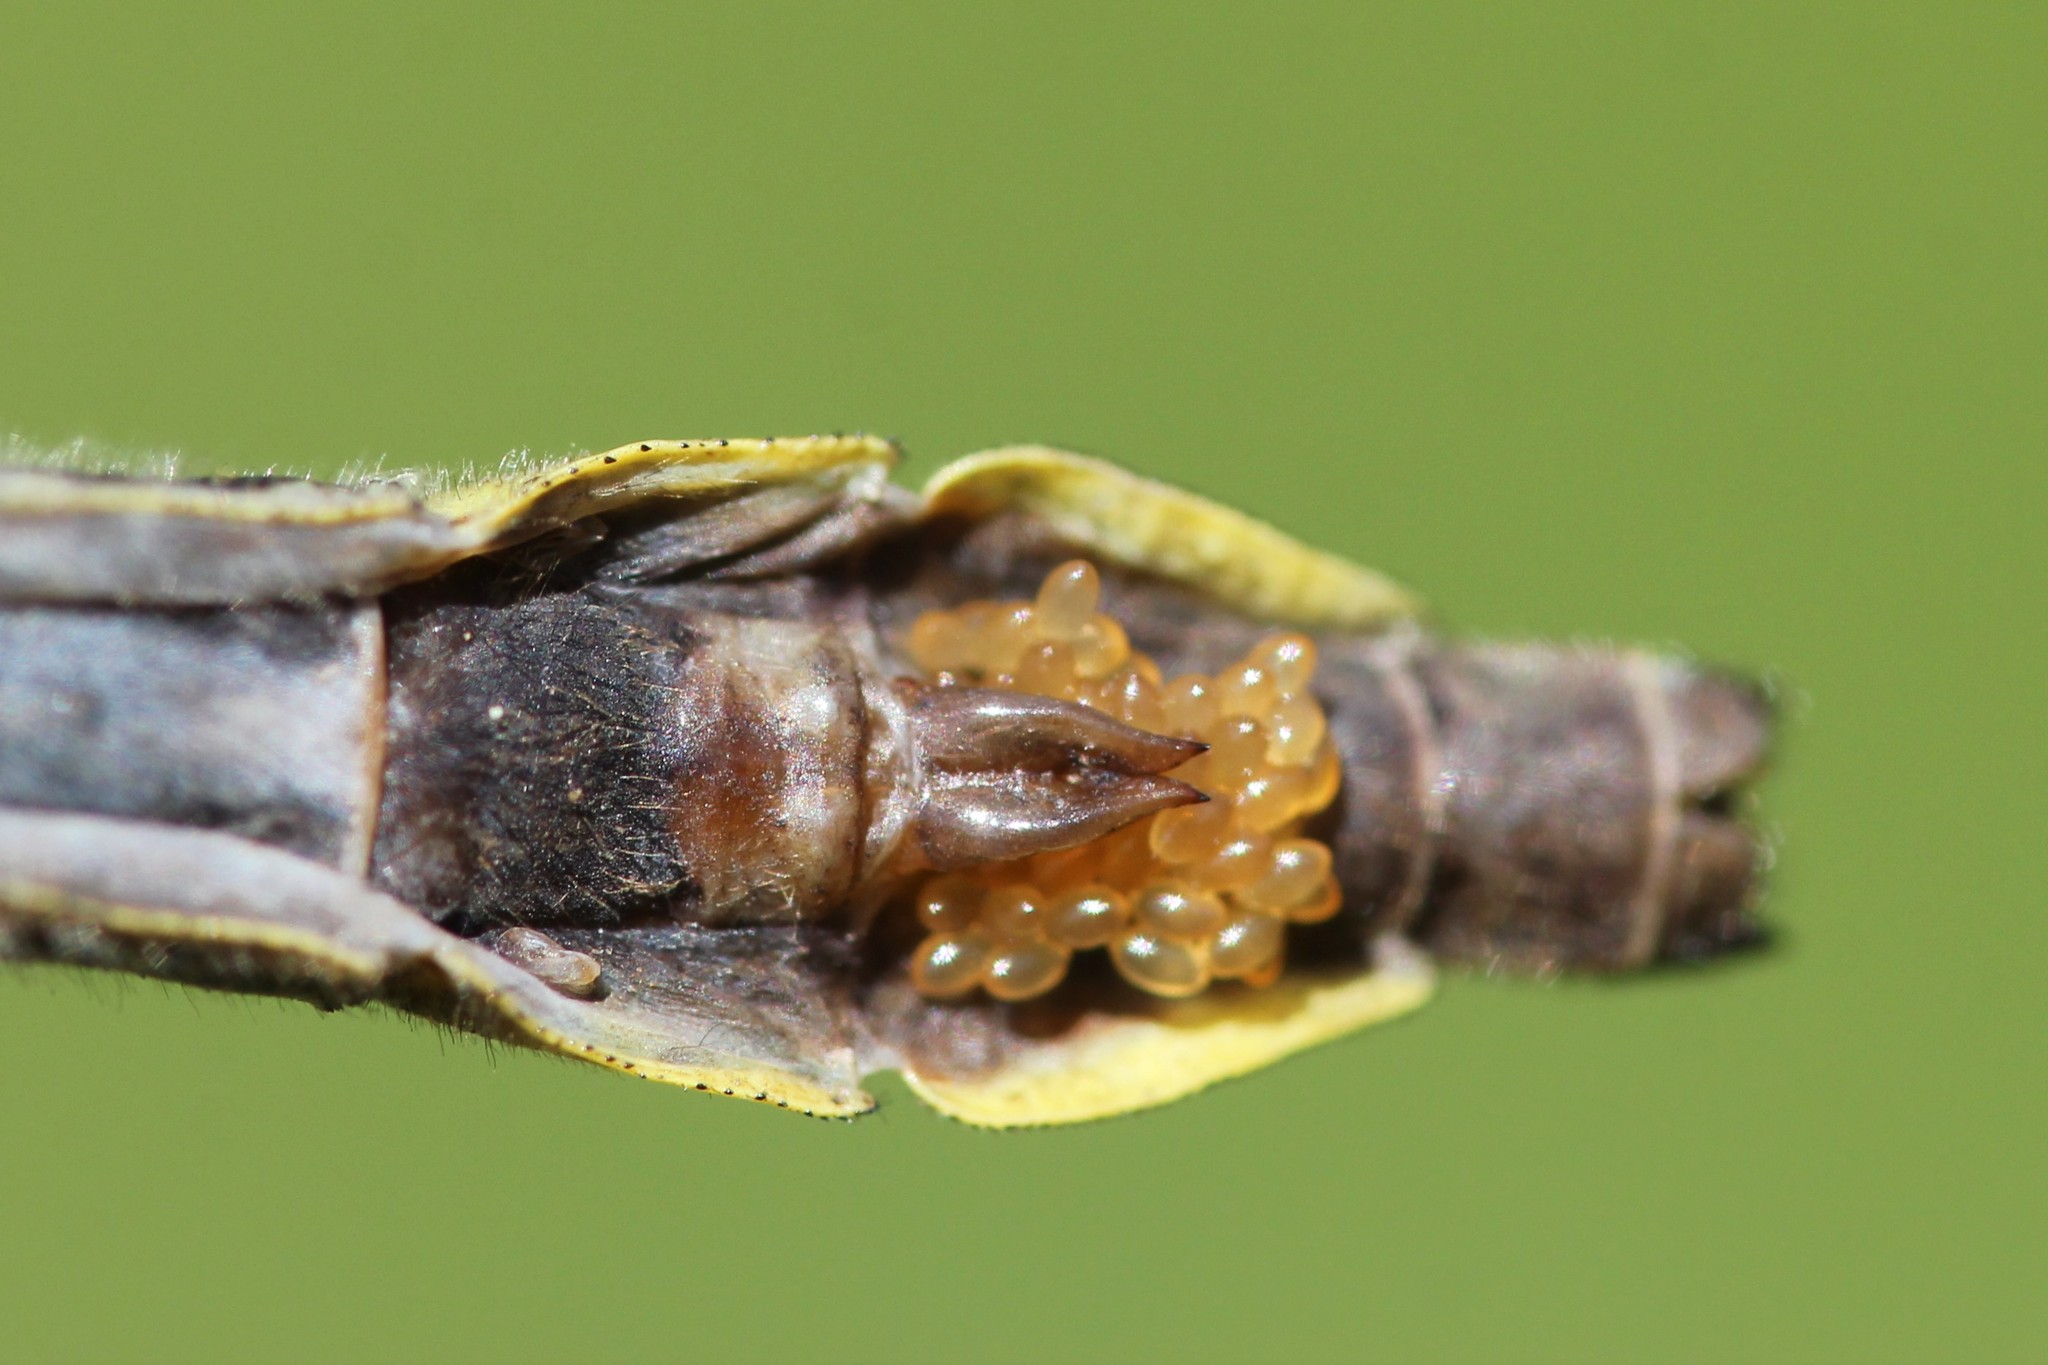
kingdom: Animalia
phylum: Arthropoda
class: Insecta
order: Odonata
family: Gomphidae
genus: Phanogomphus
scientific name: Phanogomphus borealis
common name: Beaverpond clubtail
